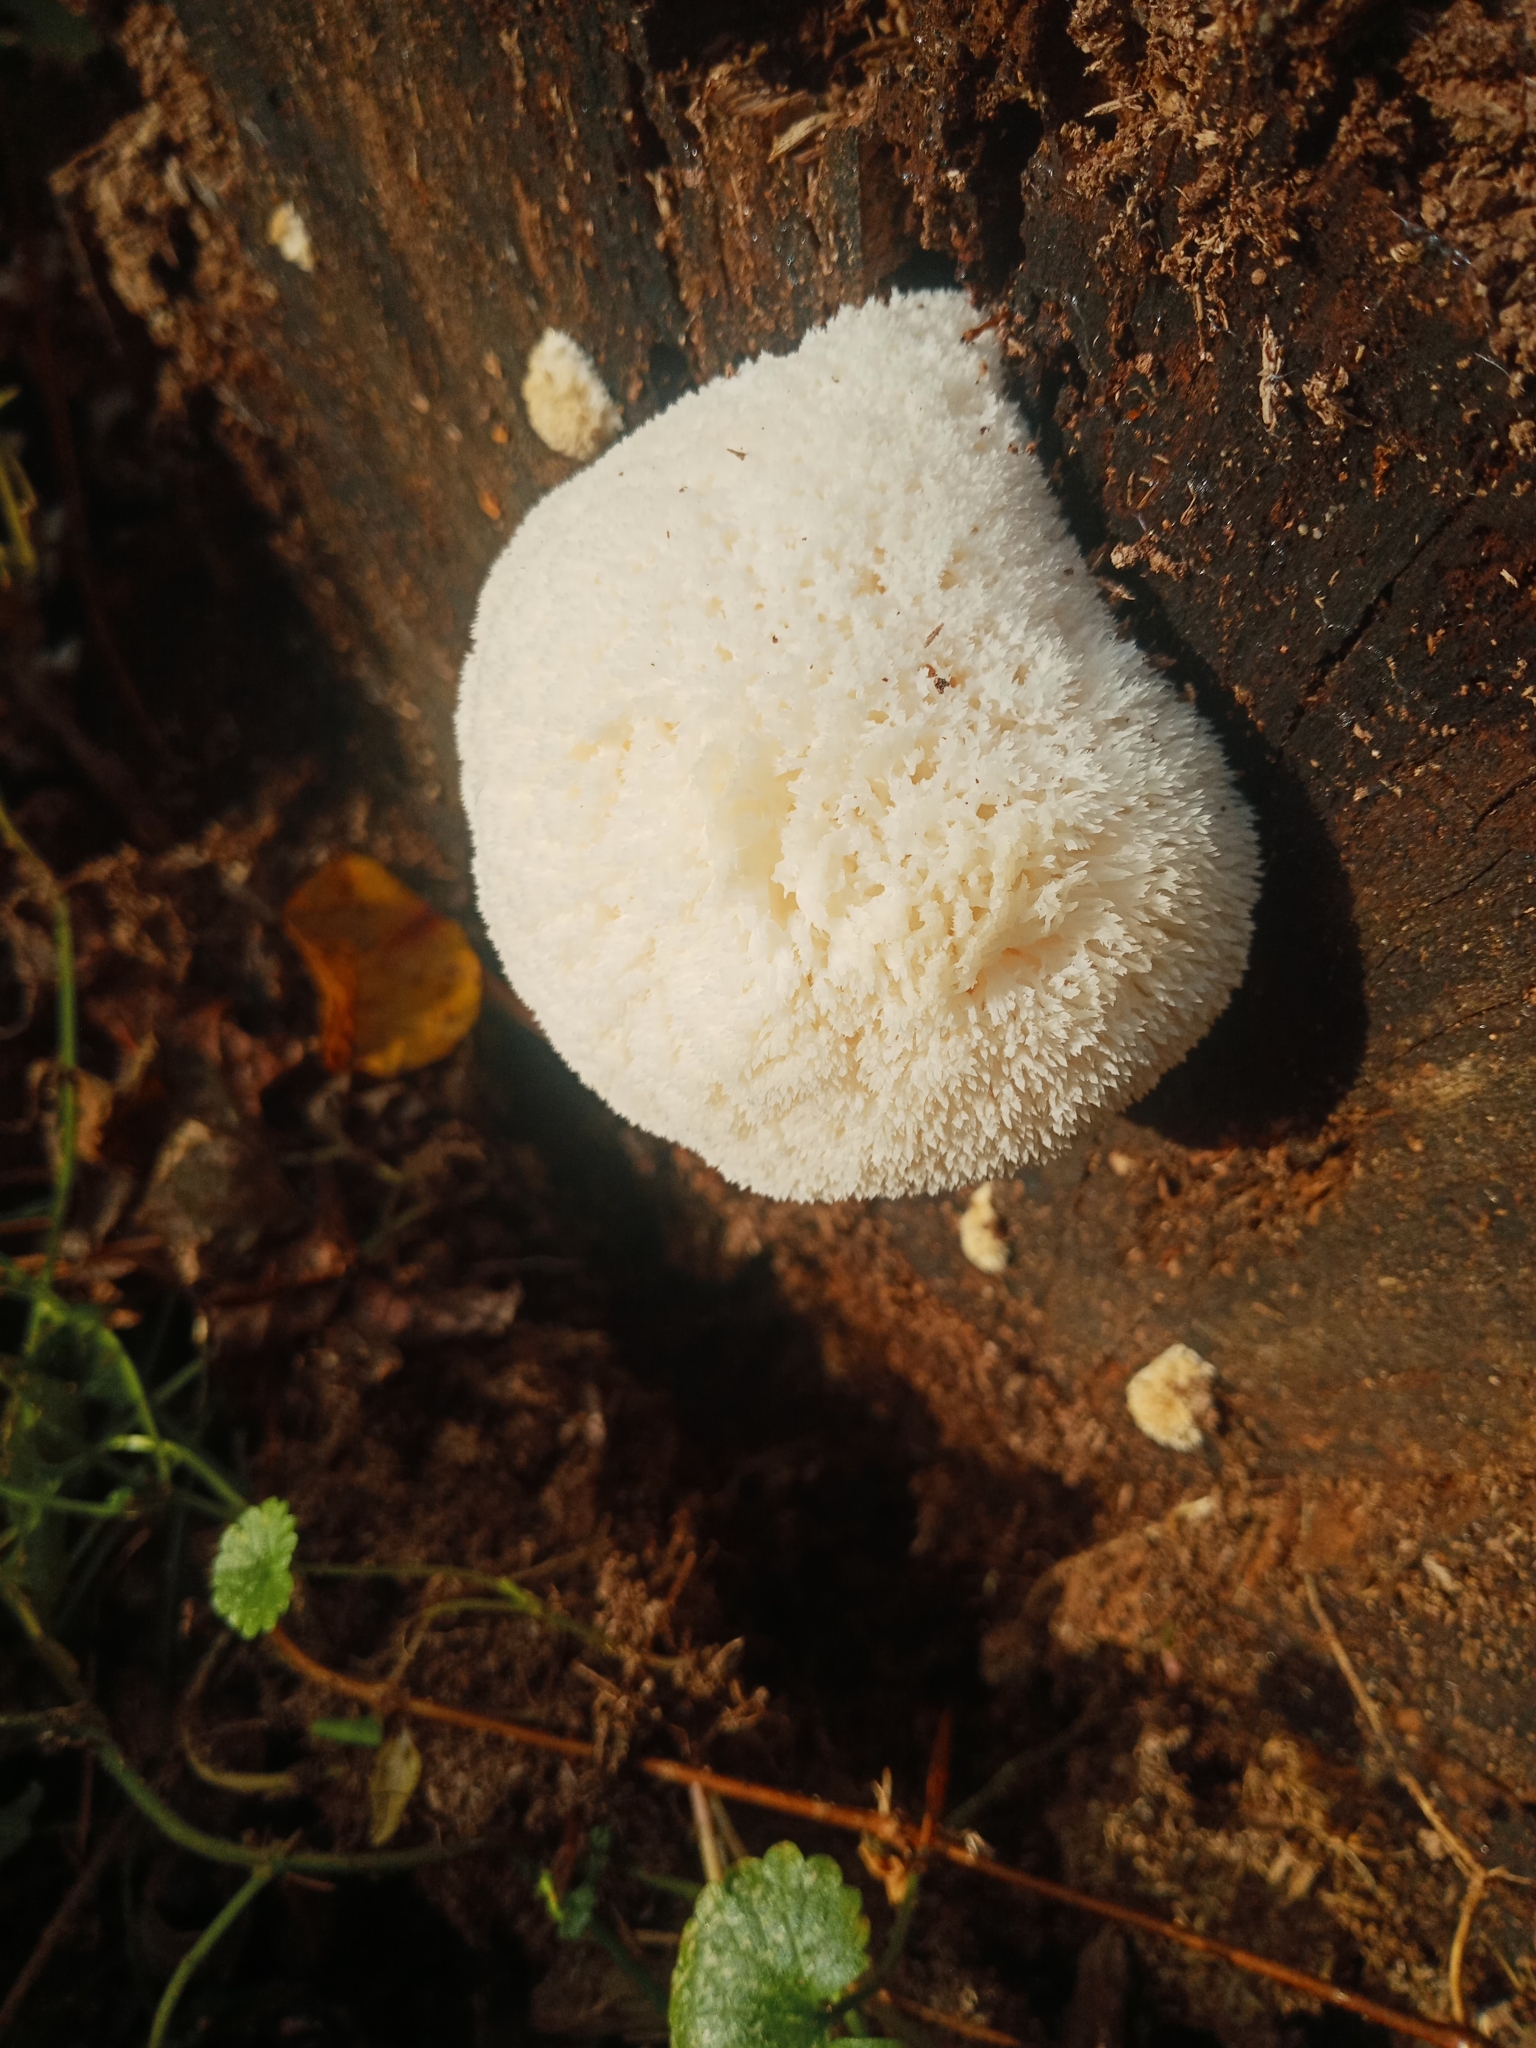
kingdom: Fungi
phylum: Basidiomycota
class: Agaricomycetes
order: Russulales
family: Hericiaceae
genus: Hericium
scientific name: Hericium erinaceus
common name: Bearded tooth
